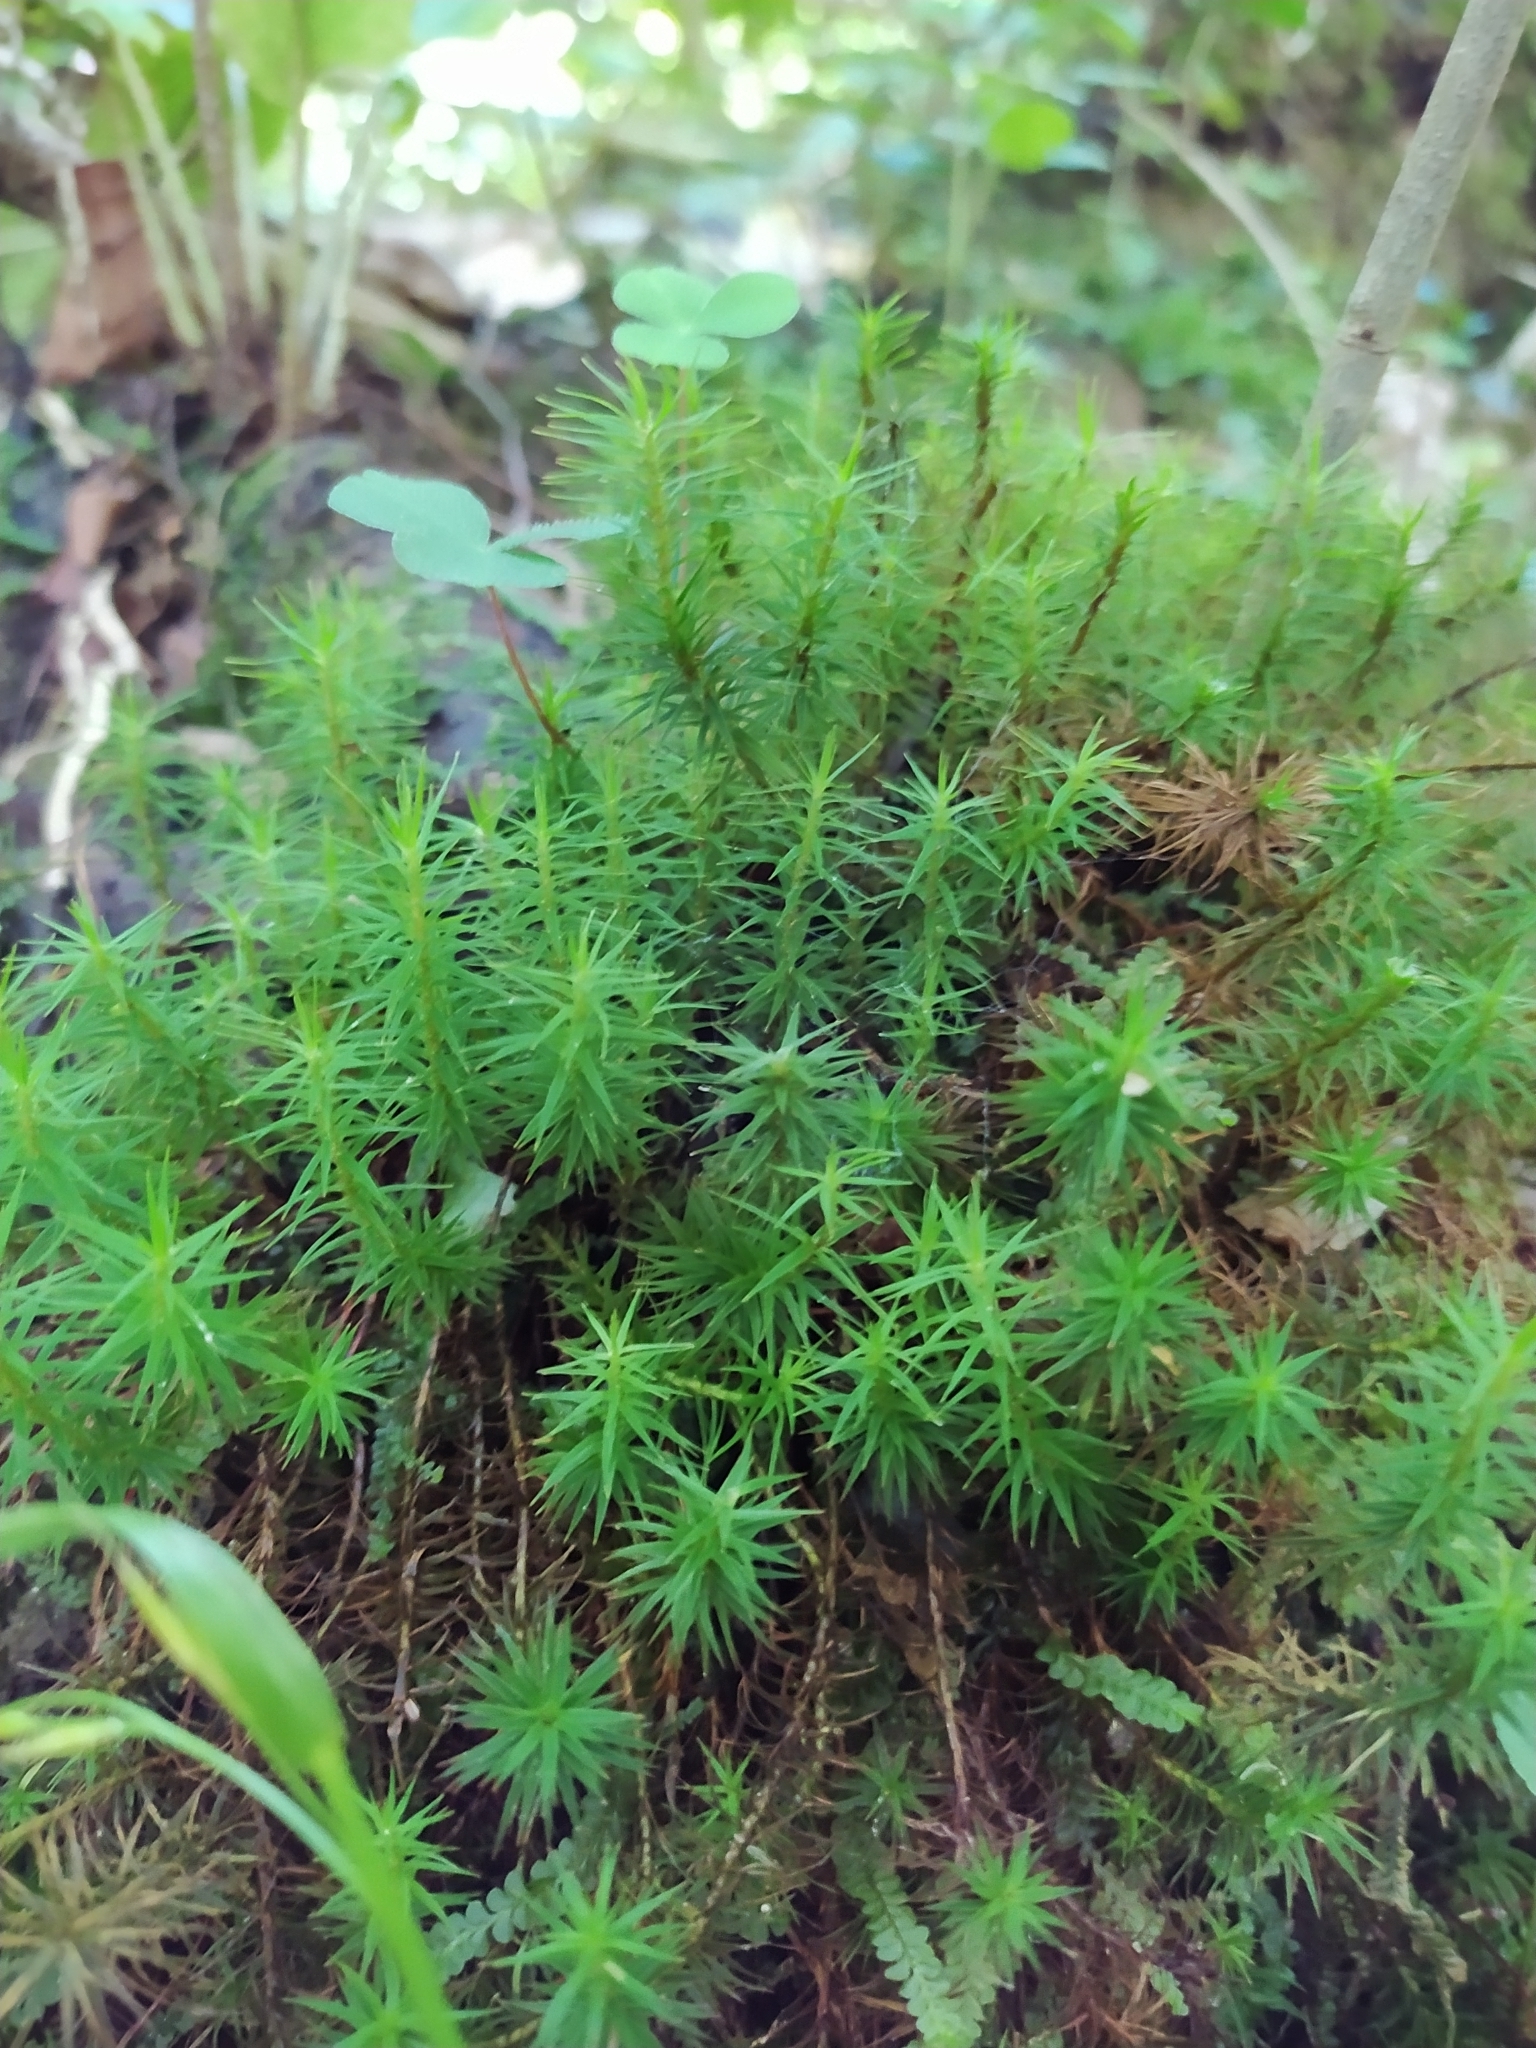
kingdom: Plantae
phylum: Bryophyta
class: Polytrichopsida
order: Polytrichales
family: Polytrichaceae
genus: Polytrichum
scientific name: Polytrichum formosum
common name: Bank haircap moss
